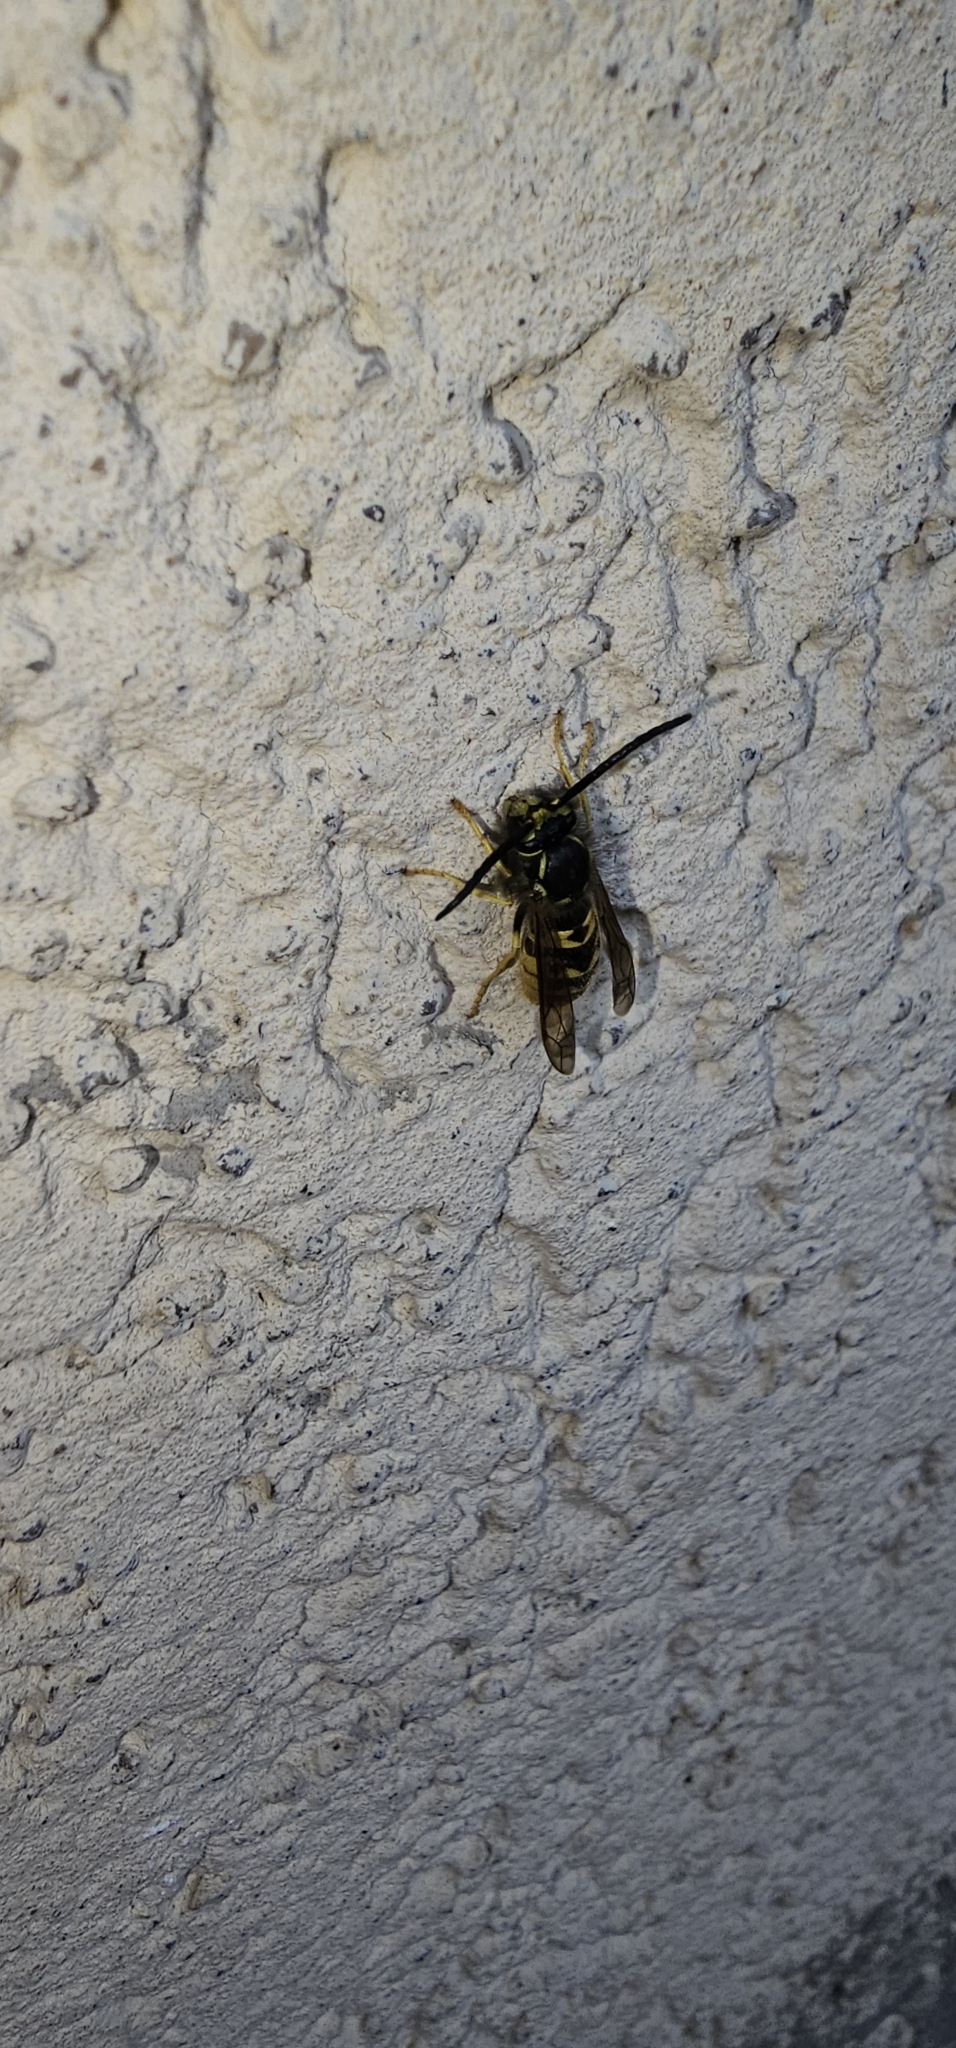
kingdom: Animalia
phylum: Arthropoda
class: Insecta
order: Hymenoptera
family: Vespidae
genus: Vespula
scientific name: Vespula germanica
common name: German wasp
